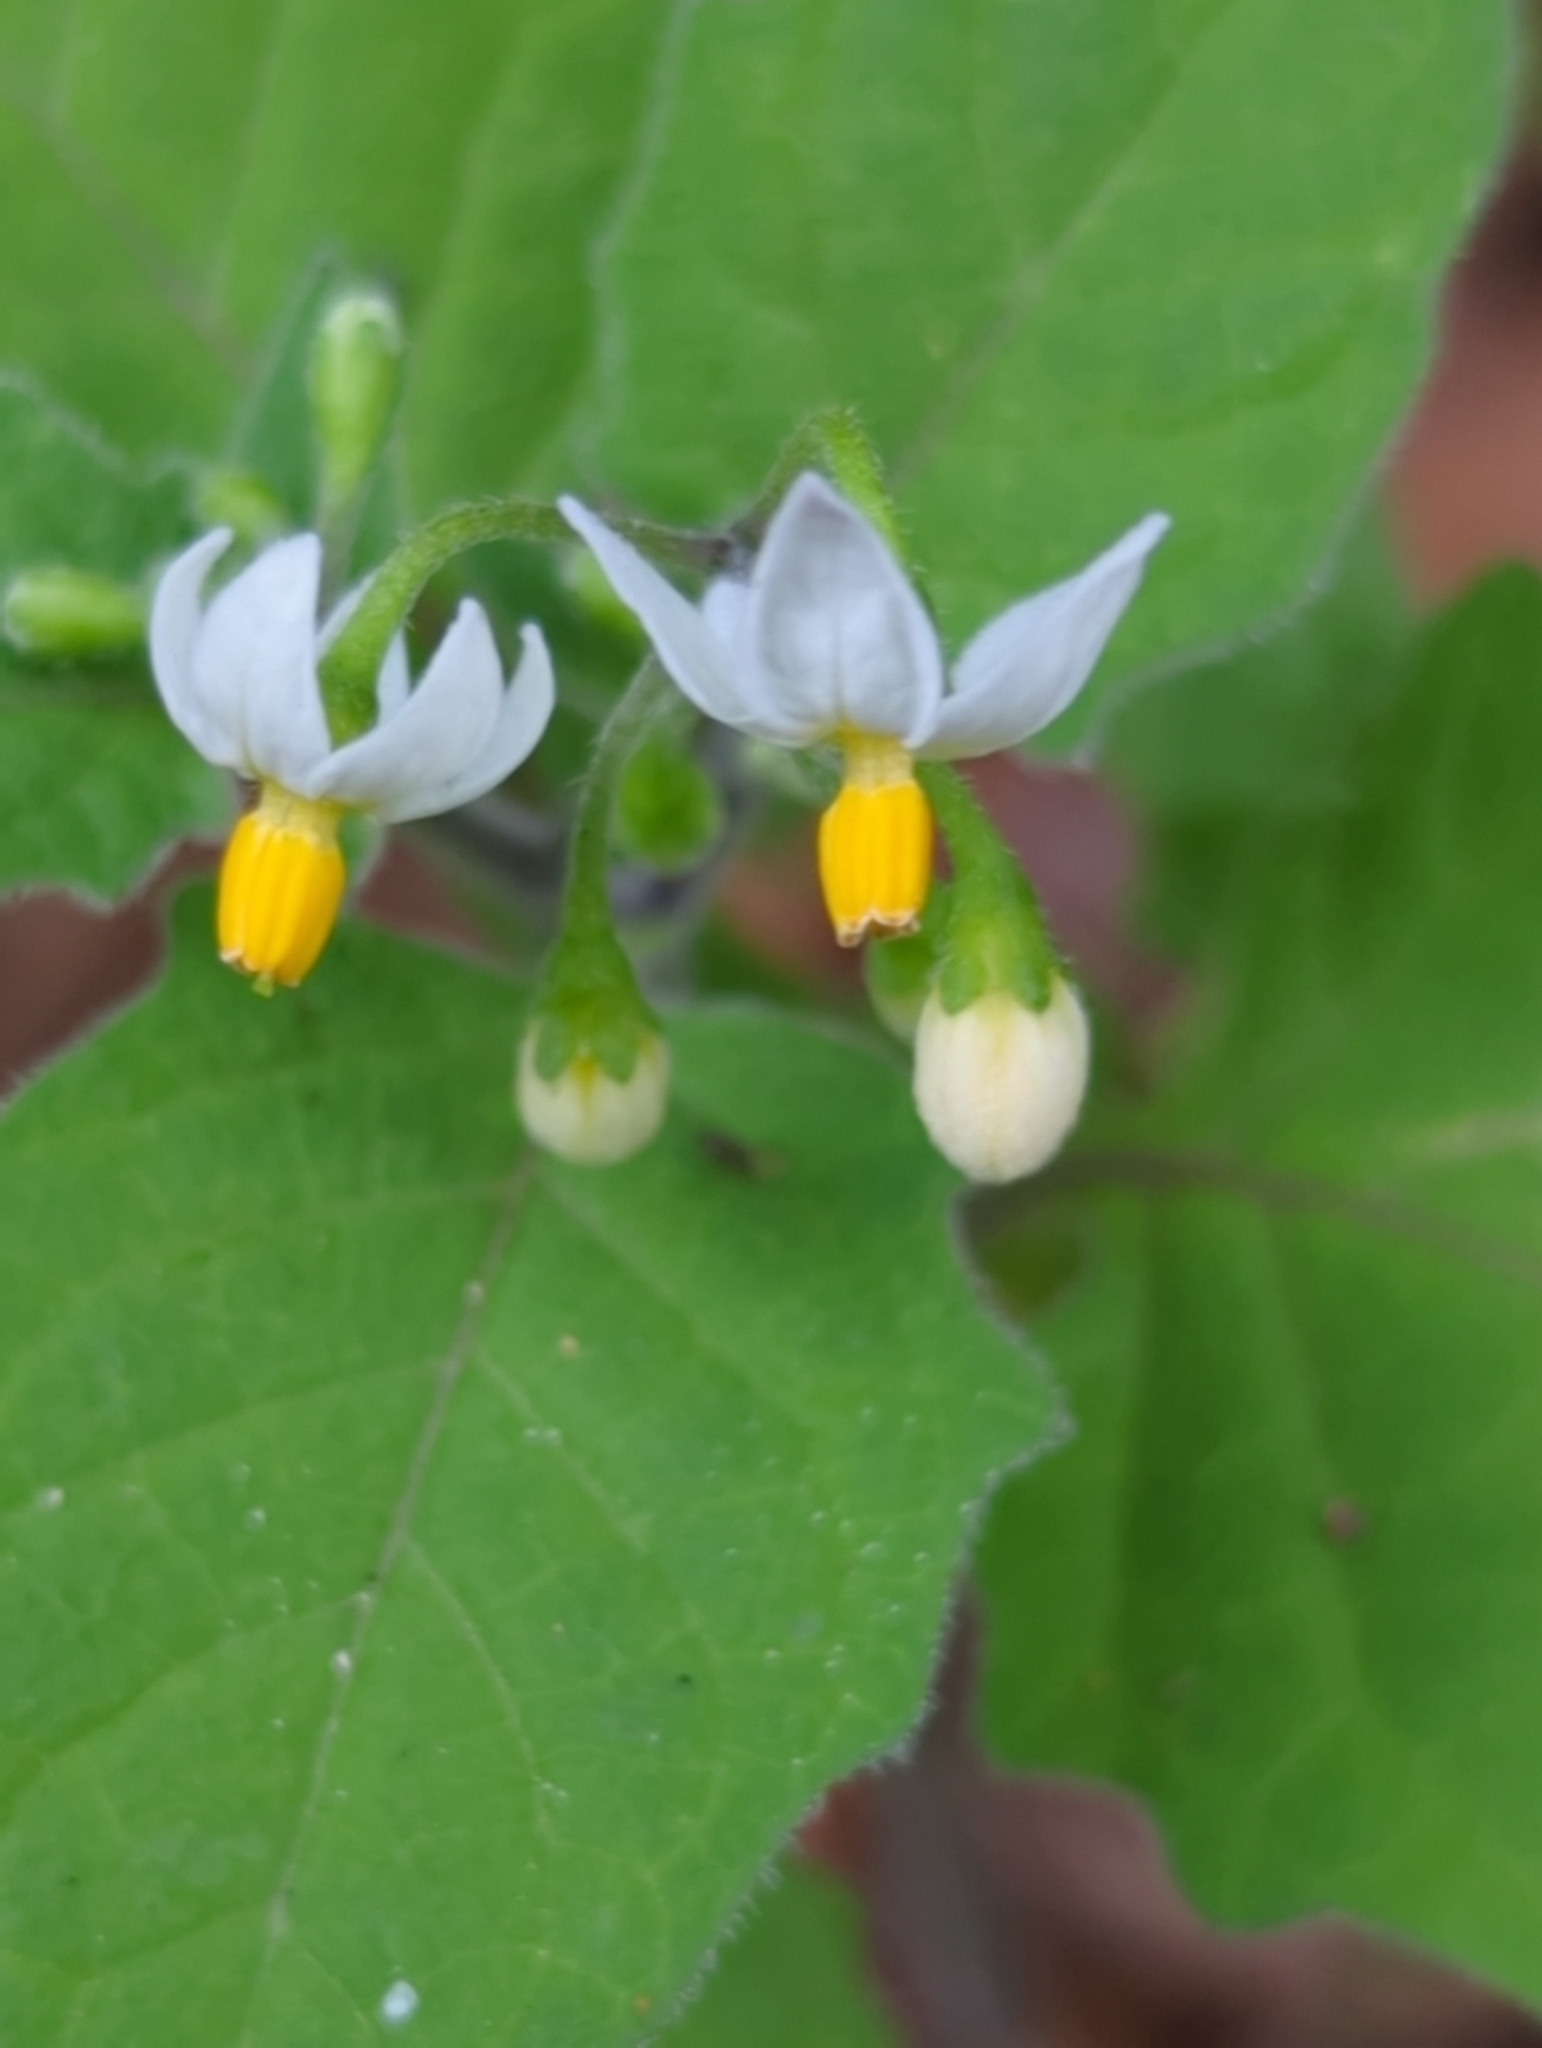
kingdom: Plantae
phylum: Tracheophyta
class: Magnoliopsida
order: Solanales
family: Solanaceae
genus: Solanum
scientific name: Solanum nigrum
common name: Black nightshade
